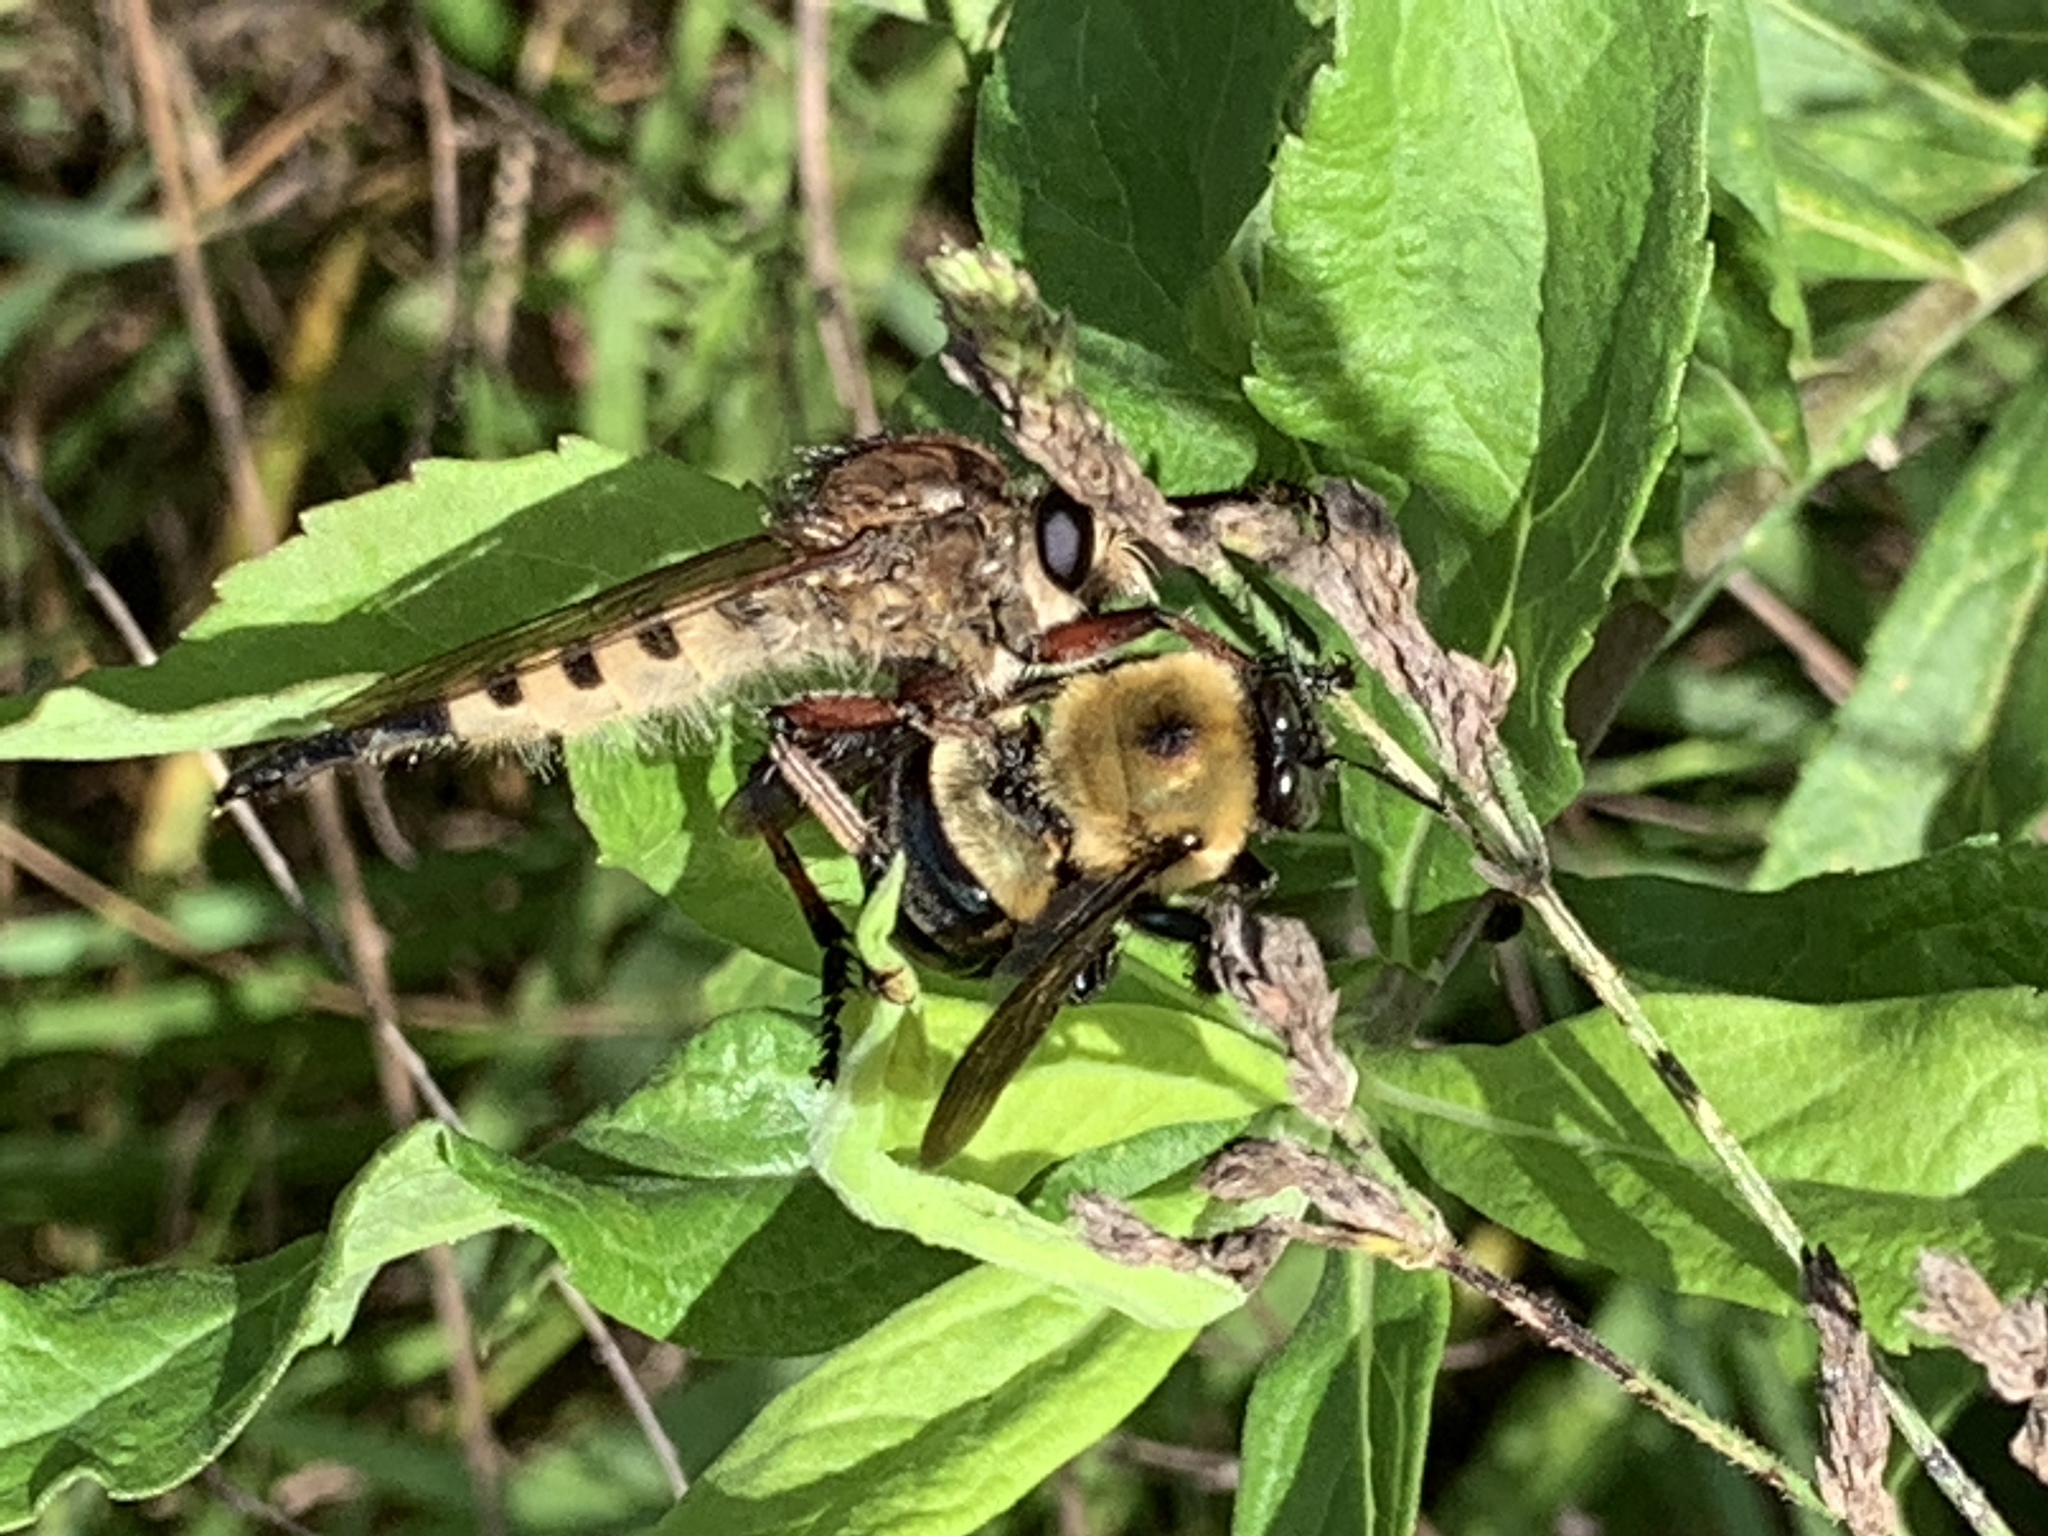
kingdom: Animalia
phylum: Arthropoda
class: Insecta
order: Hymenoptera
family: Apidae
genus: Xylocopa
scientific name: Xylocopa virginica
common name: Carpenter bee
